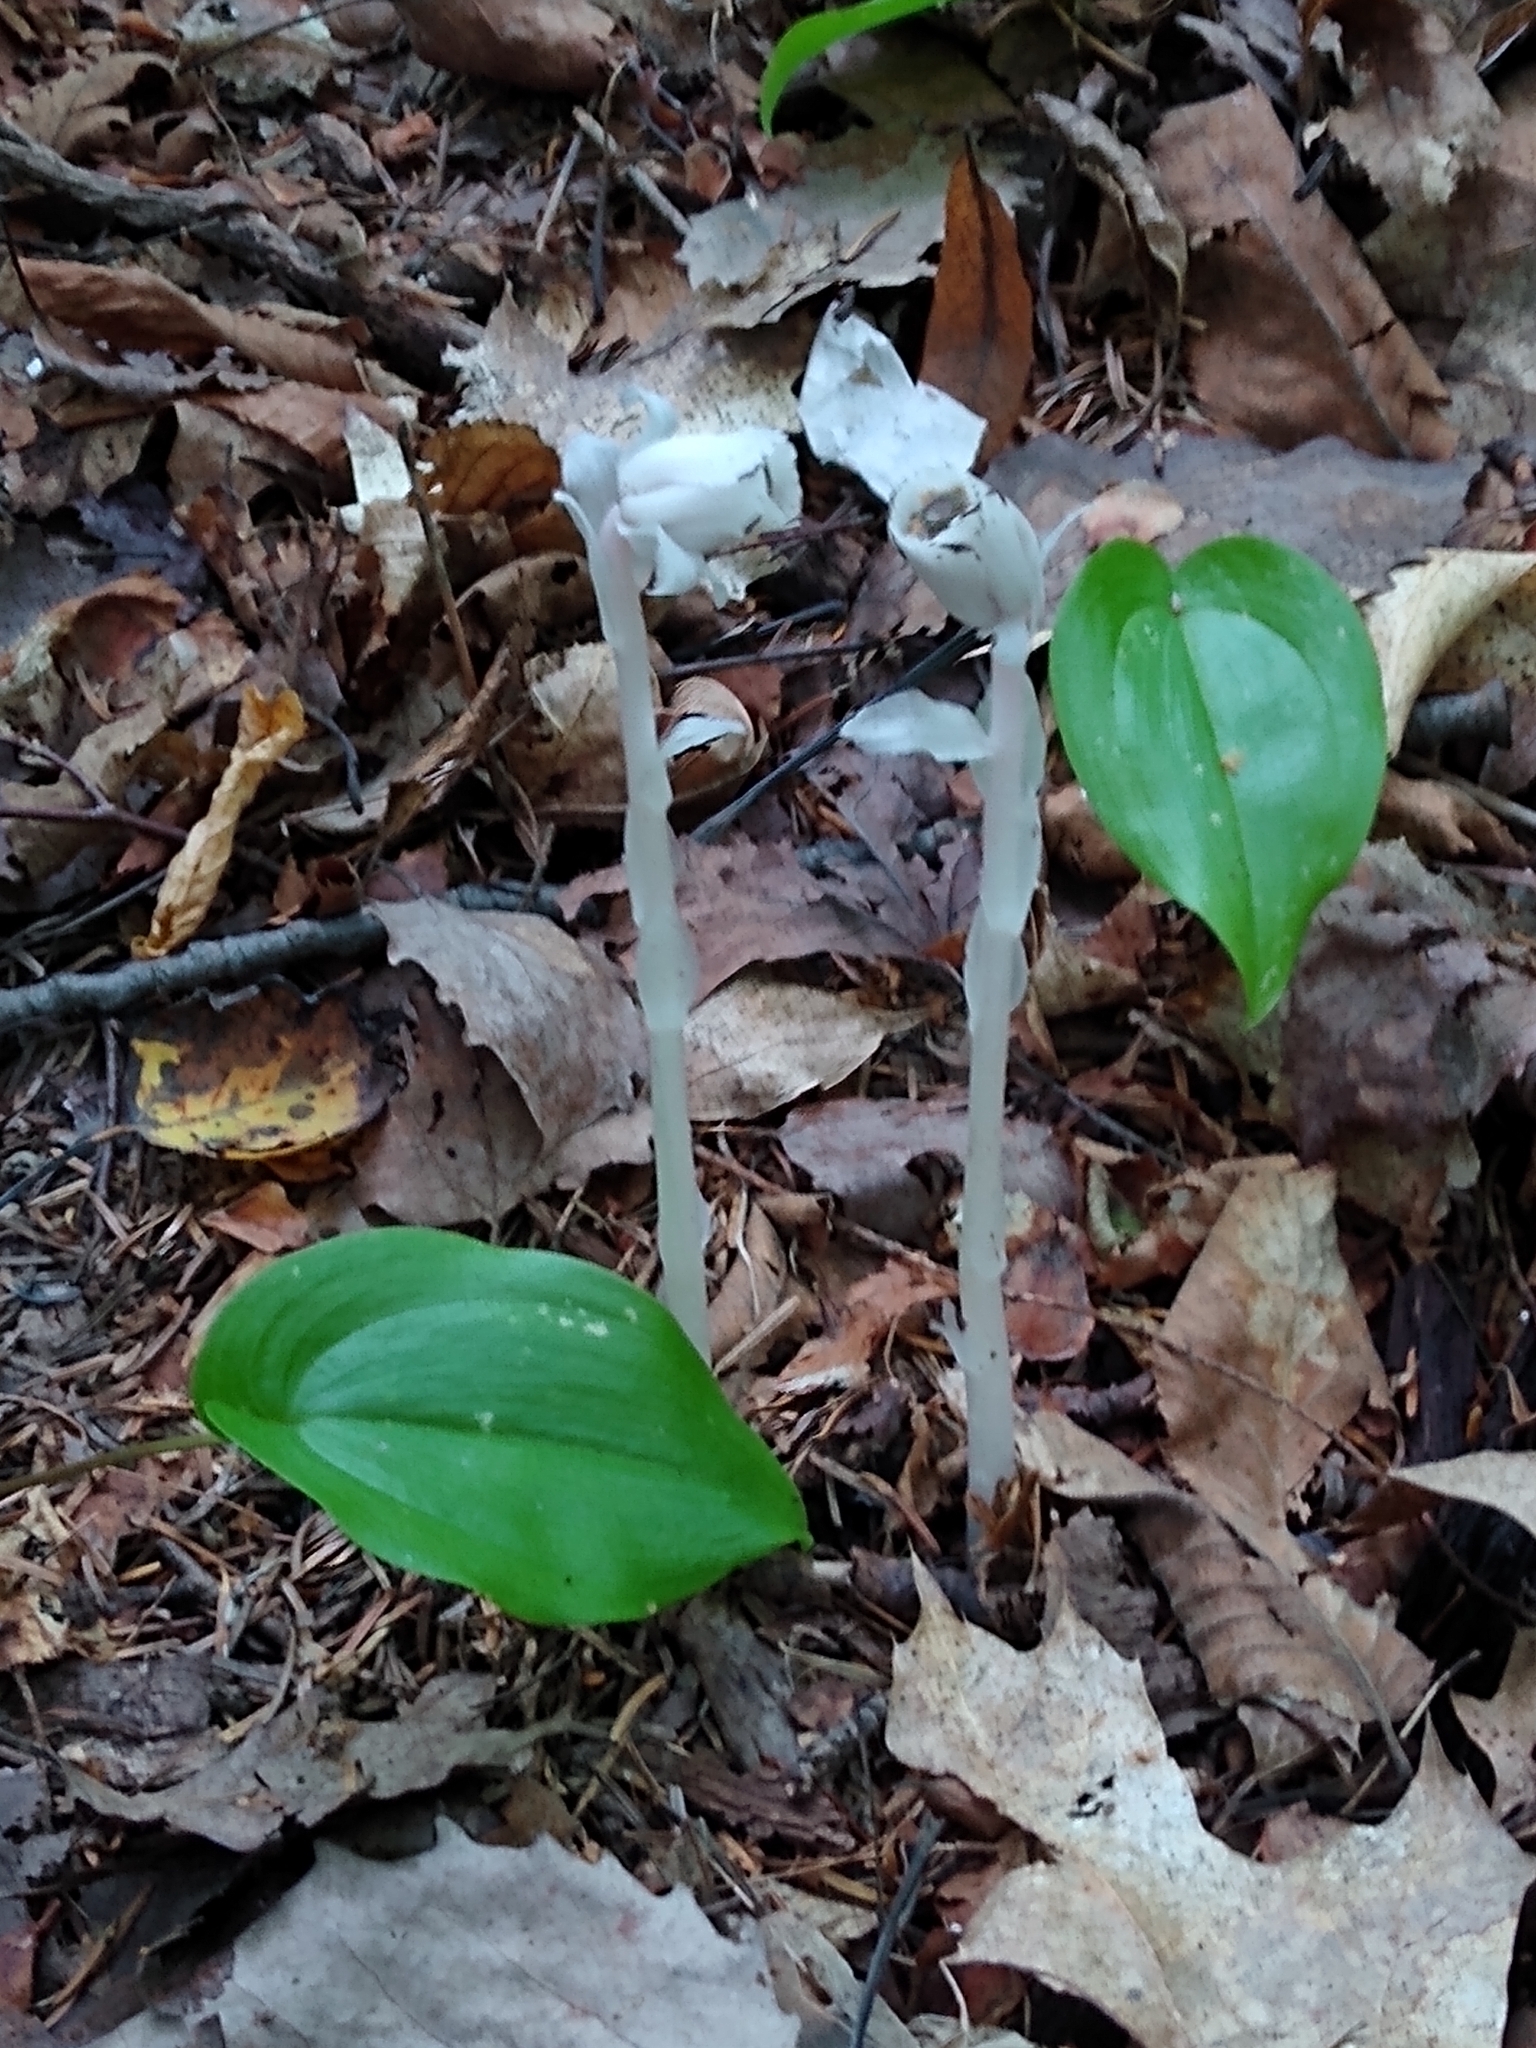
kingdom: Plantae
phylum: Tracheophyta
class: Magnoliopsida
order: Ericales
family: Ericaceae
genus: Monotropa
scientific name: Monotropa uniflora
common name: Convulsion root
